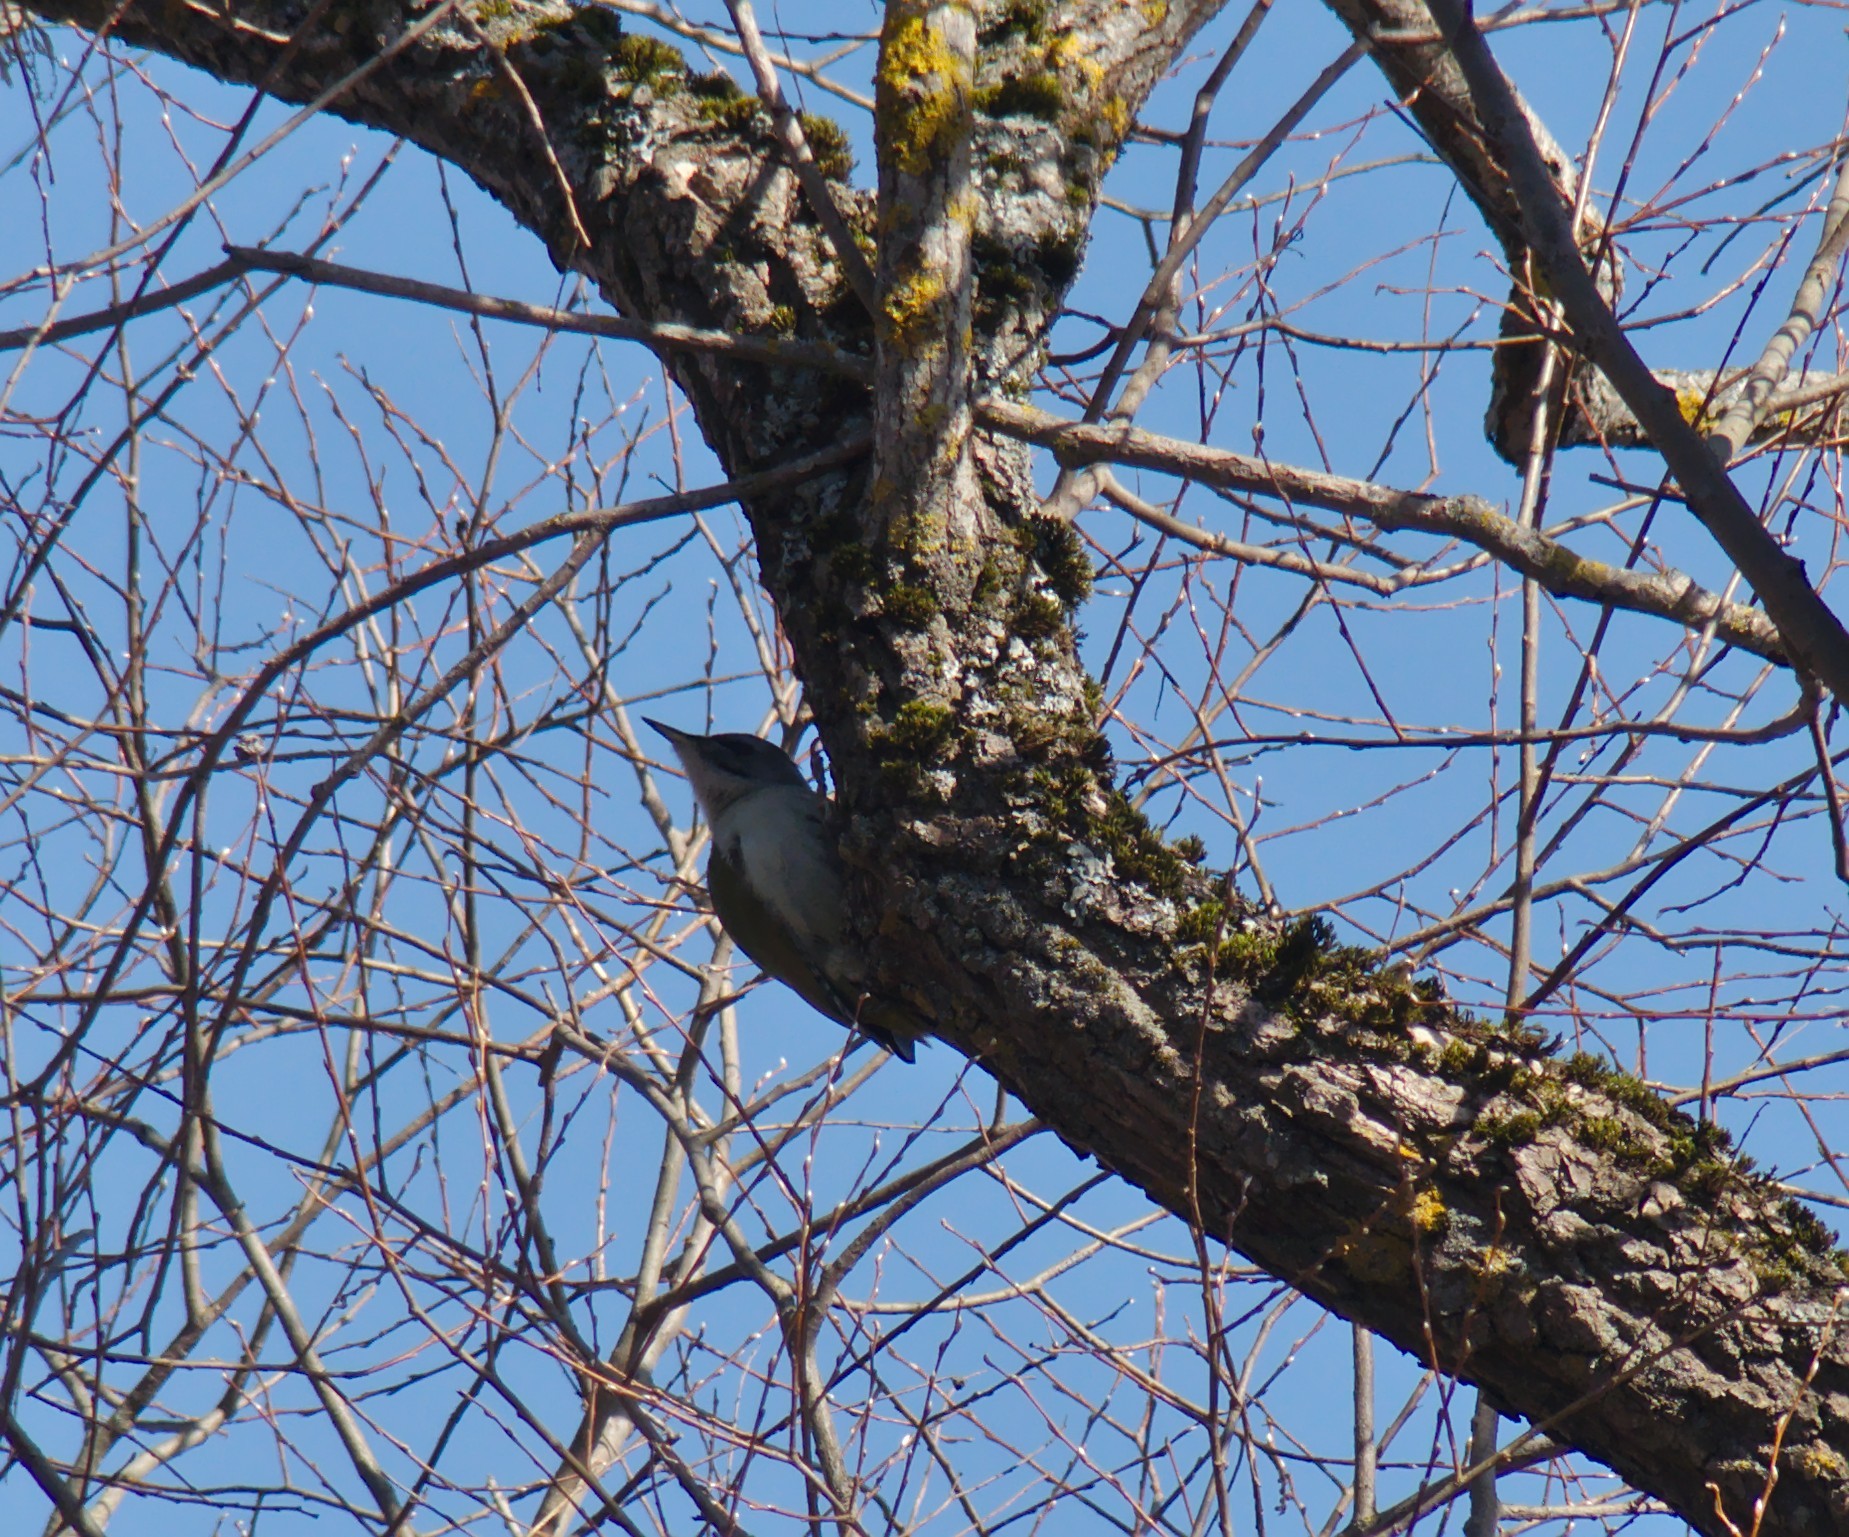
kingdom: Animalia
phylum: Chordata
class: Aves
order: Piciformes
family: Picidae
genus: Picus
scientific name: Picus canus
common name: Grey-headed woodpecker
